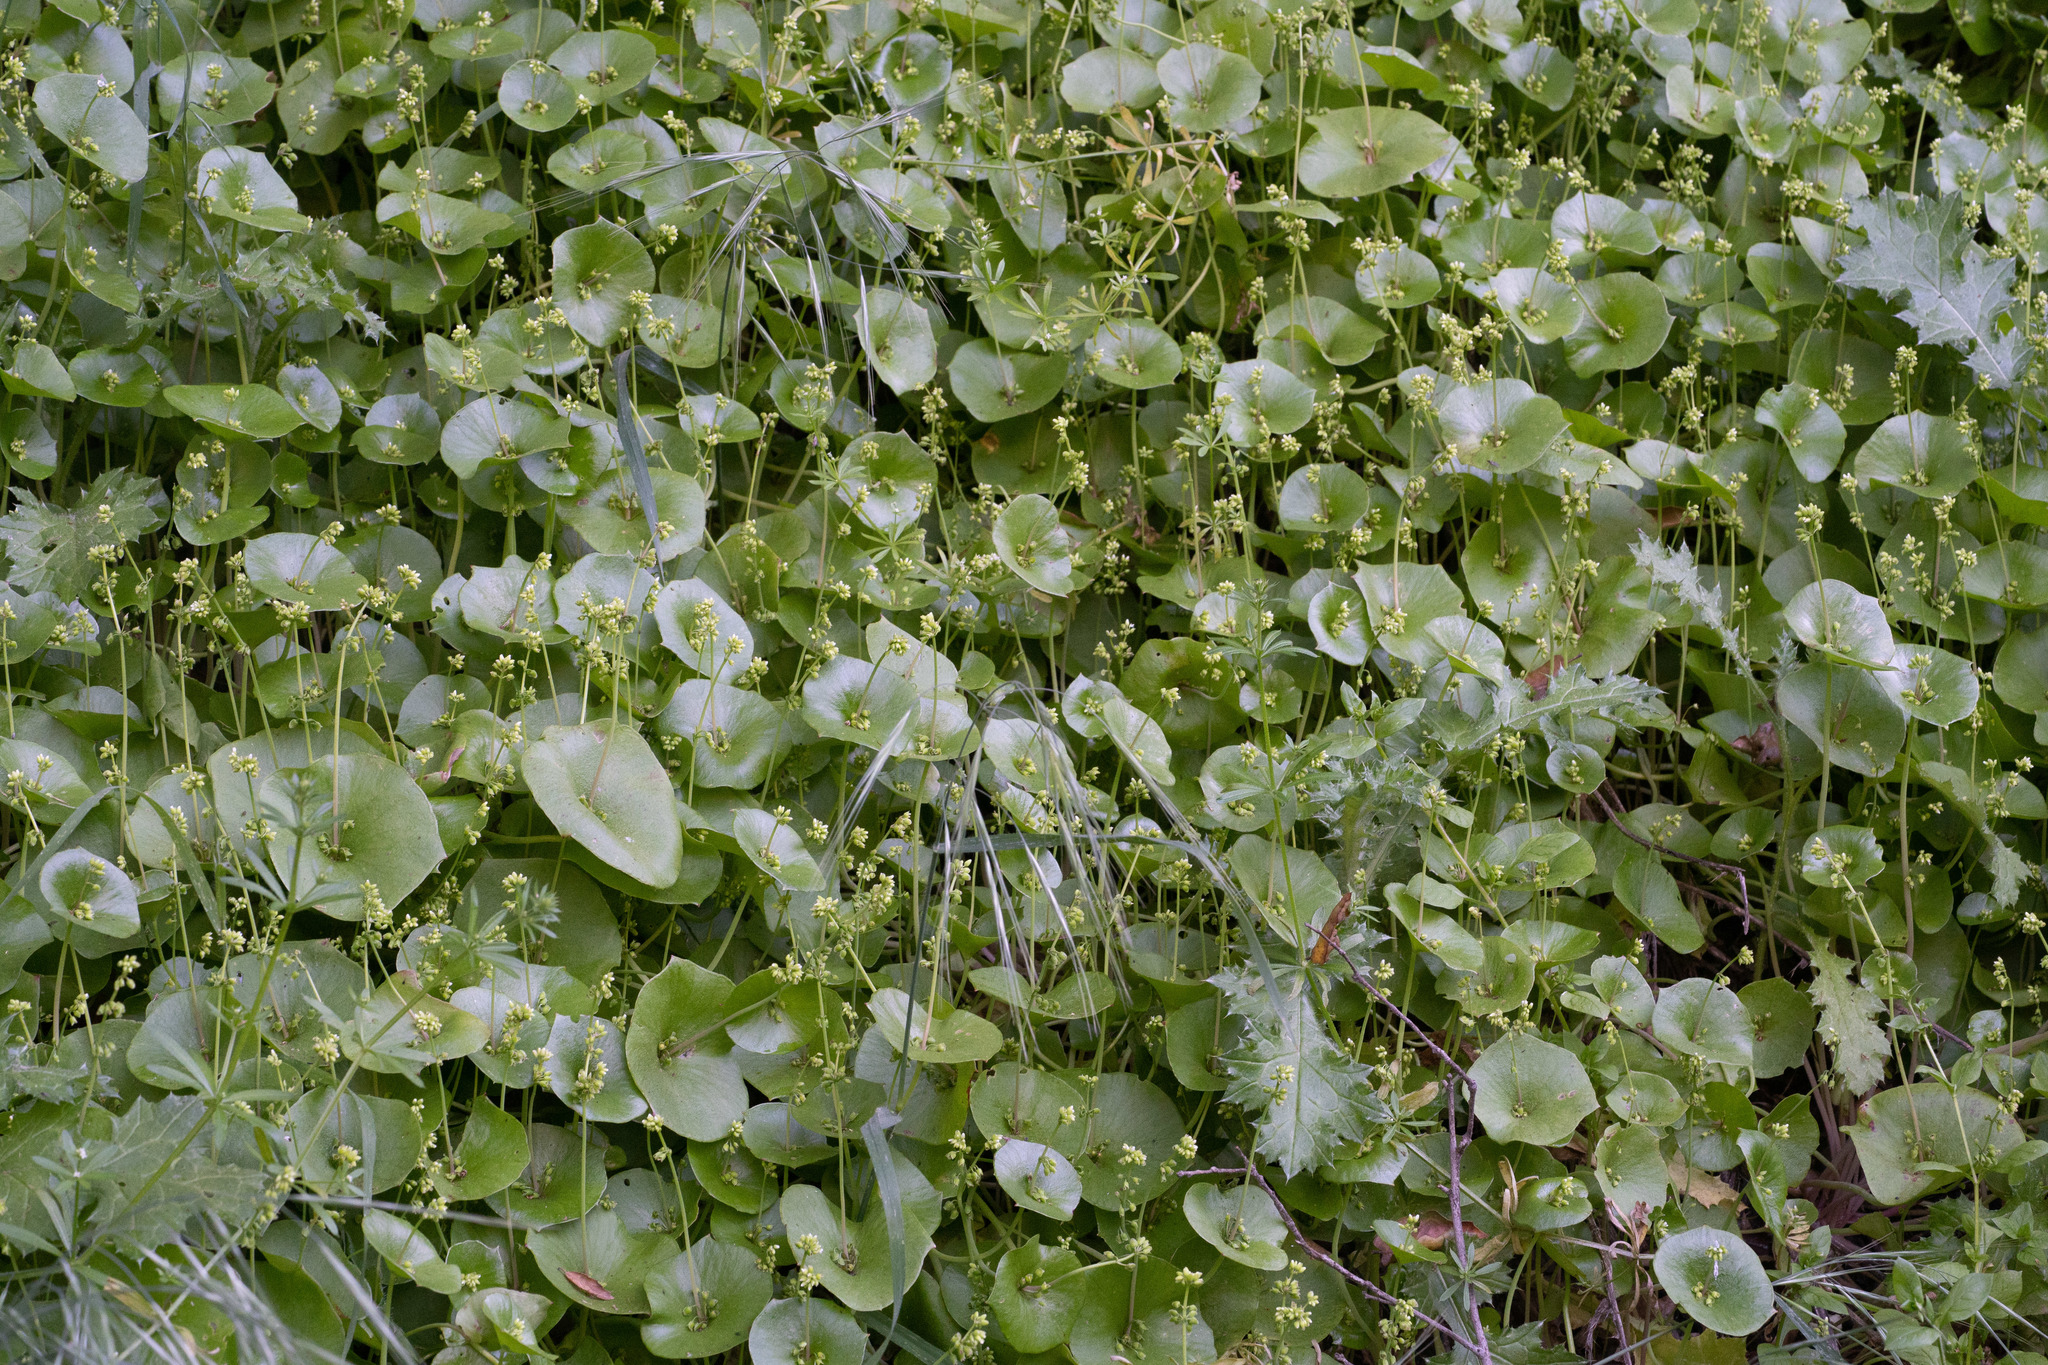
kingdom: Plantae
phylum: Tracheophyta
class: Magnoliopsida
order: Caryophyllales
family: Montiaceae
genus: Claytonia
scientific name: Claytonia perfoliata
